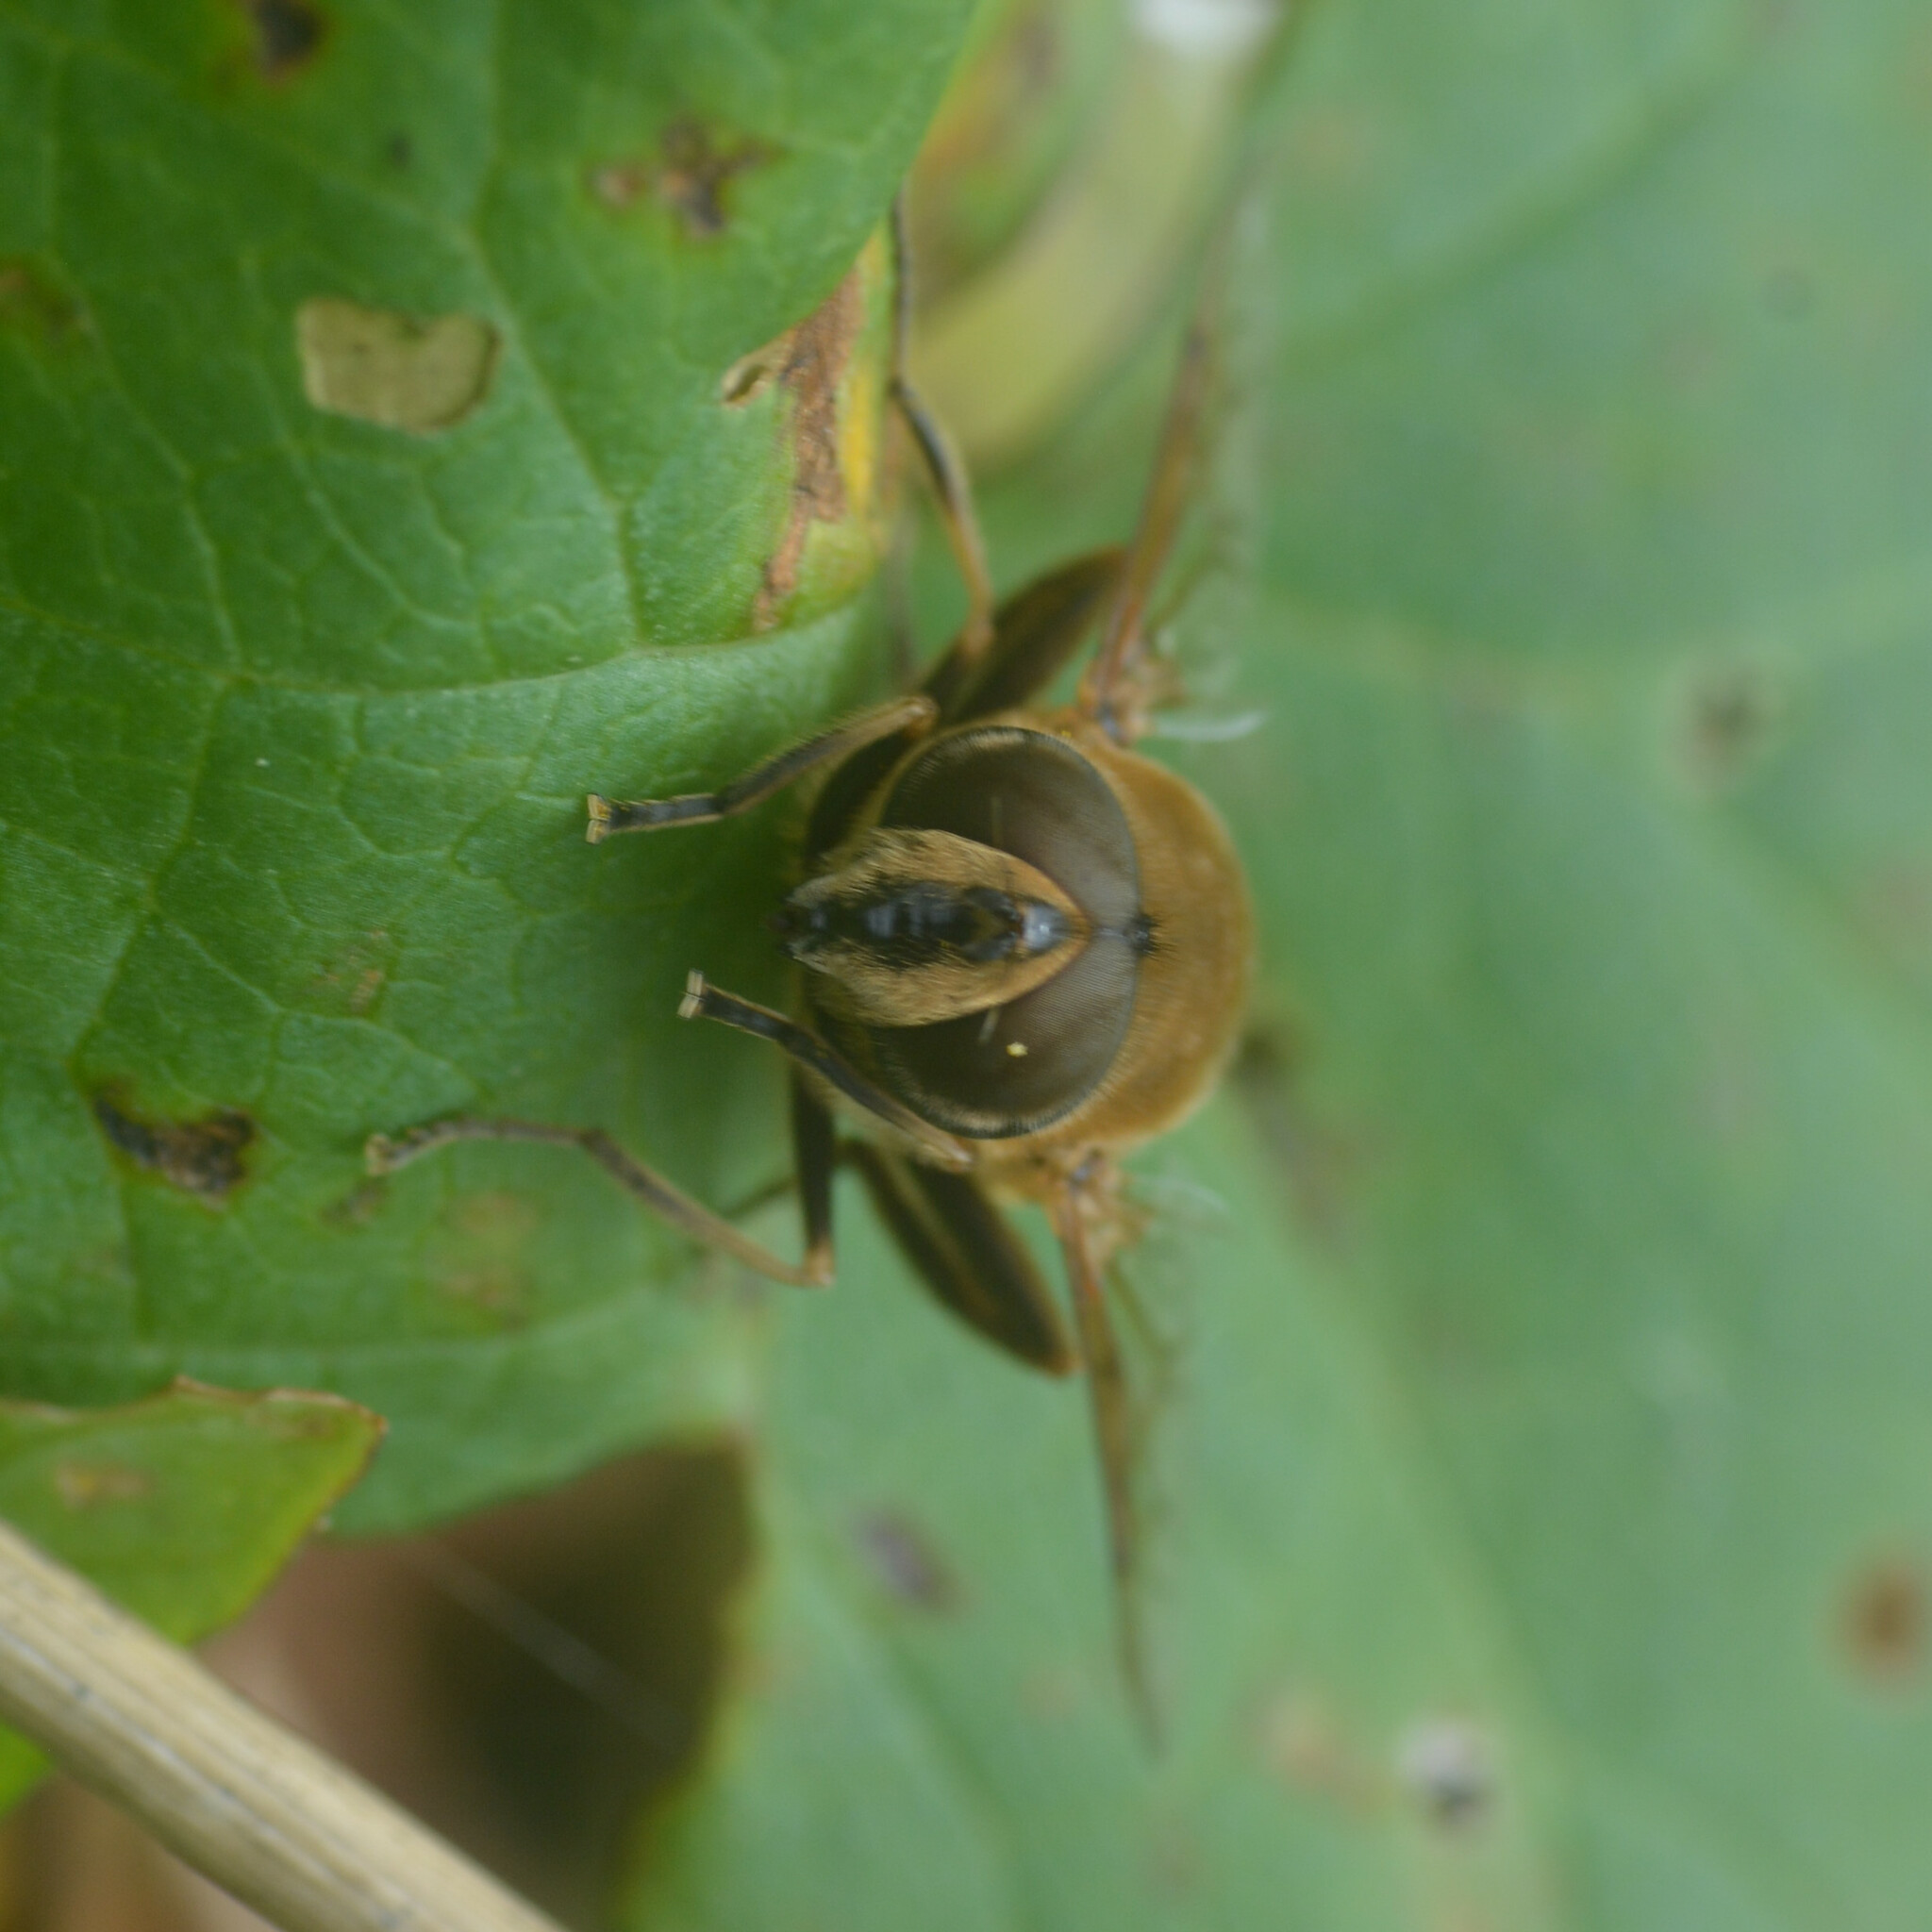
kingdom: Animalia
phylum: Arthropoda
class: Insecta
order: Diptera
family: Syrphidae
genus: Eristalis
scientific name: Eristalis tenax
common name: Drone fly
